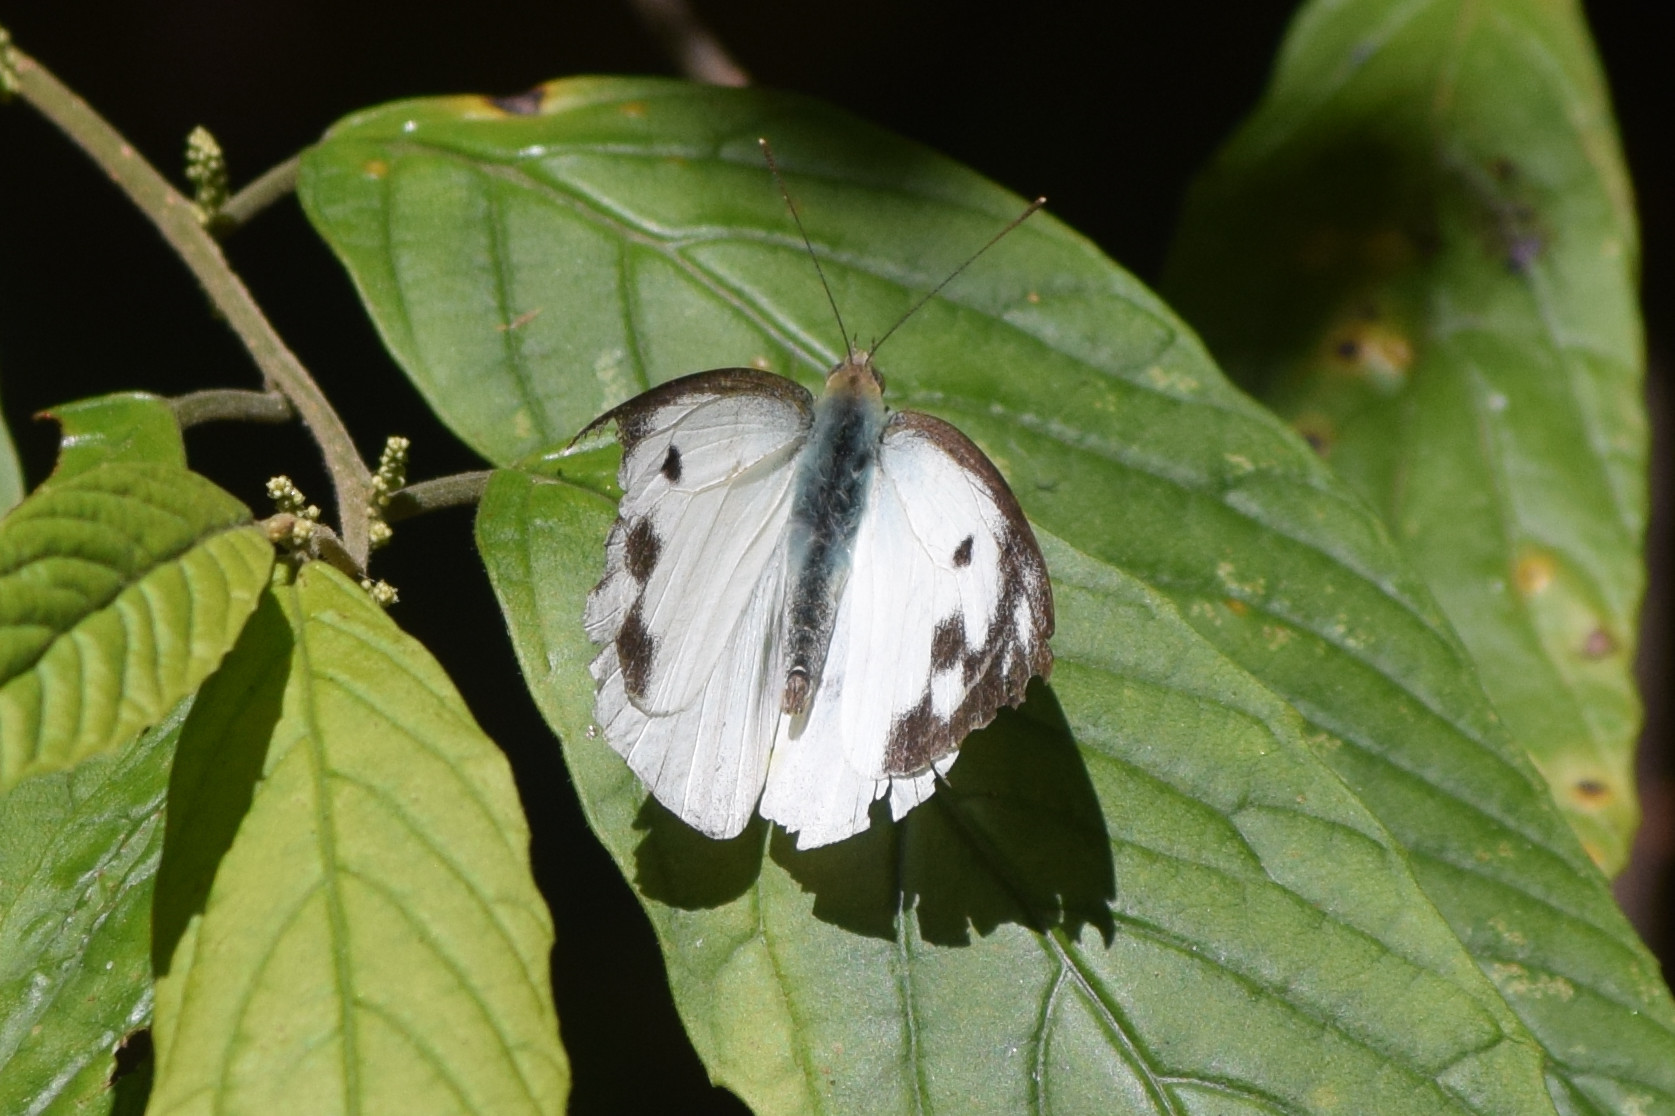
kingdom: Animalia
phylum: Arthropoda
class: Insecta
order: Lepidoptera
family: Pieridae
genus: Pieris
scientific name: Pieris canidia
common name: Indian cabbage white
